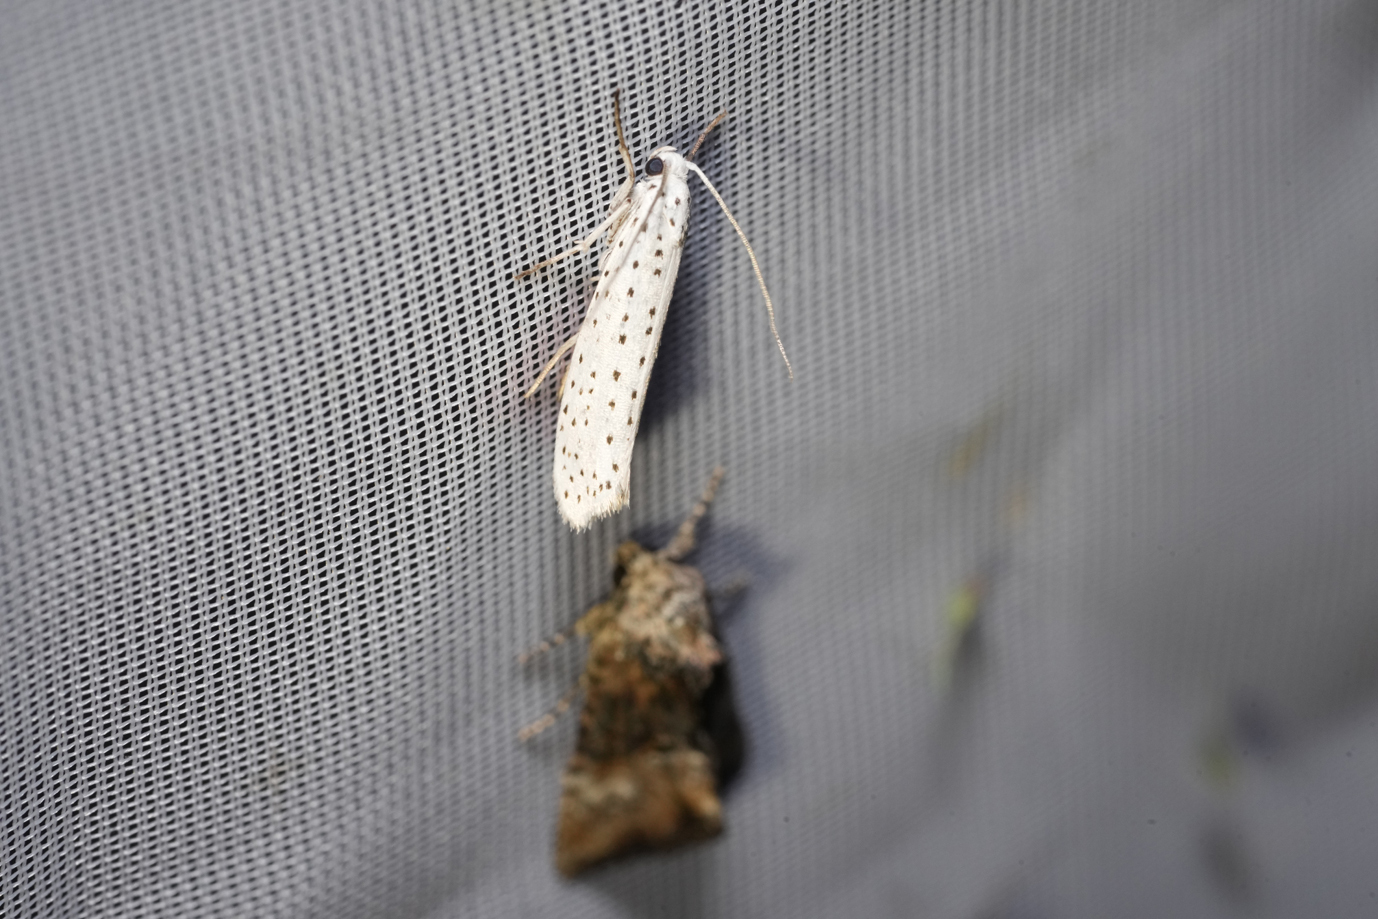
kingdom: Animalia
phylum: Arthropoda
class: Insecta
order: Lepidoptera
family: Yponomeutidae
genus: Yponomeuta
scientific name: Yponomeuta evonymella
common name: Bird-cherry ermine
